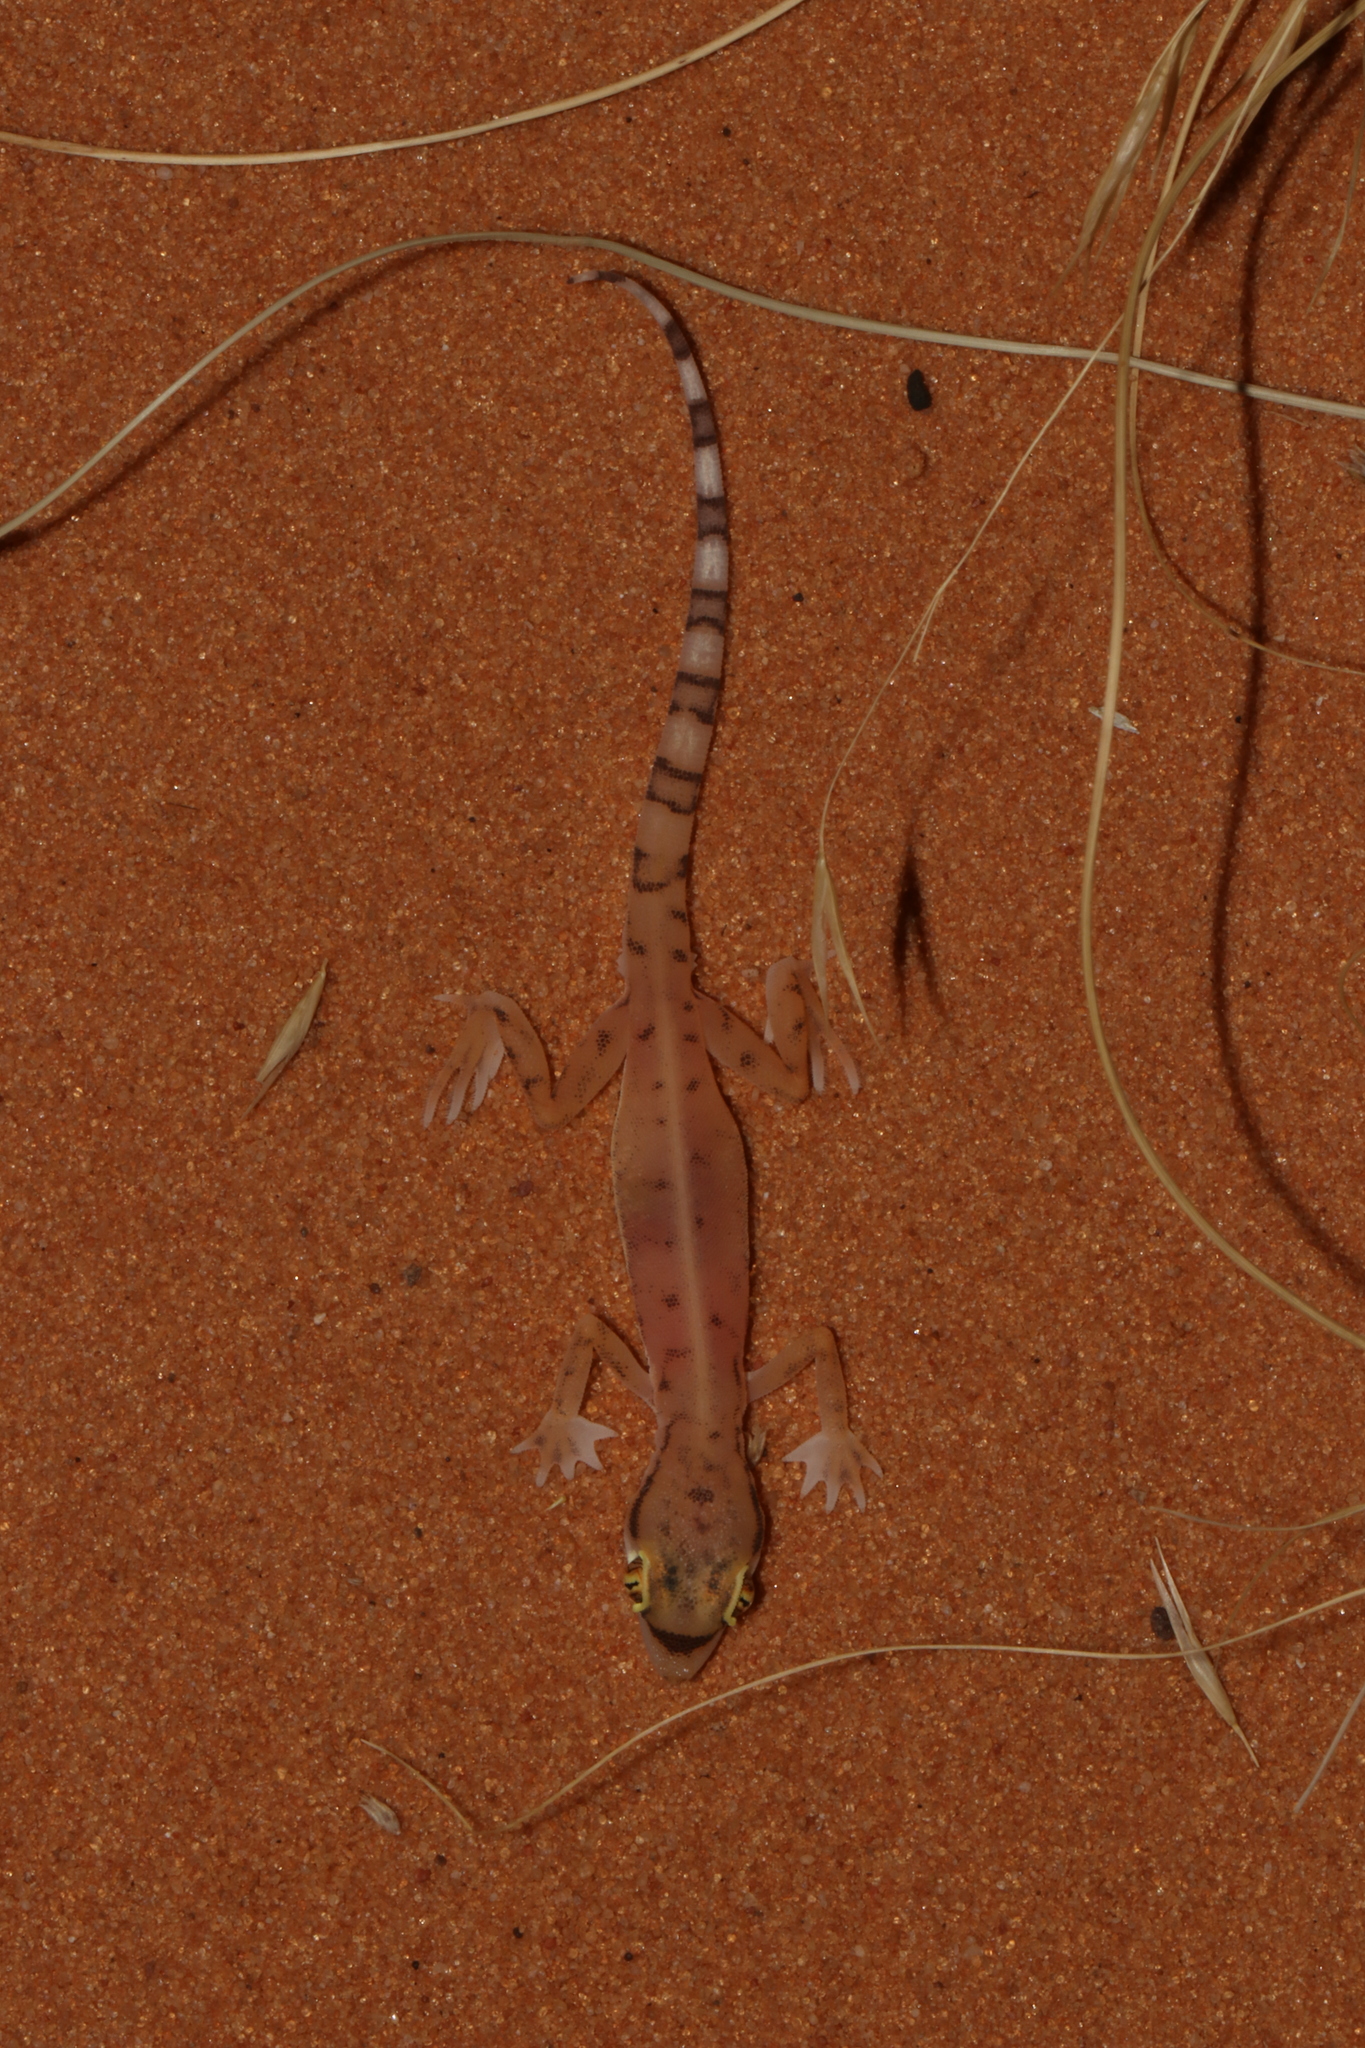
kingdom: Animalia
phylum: Chordata
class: Squamata
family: Gekkonidae
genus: Trigonodactylus
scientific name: Trigonodactylus arabicus
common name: Arabian sand gecko
